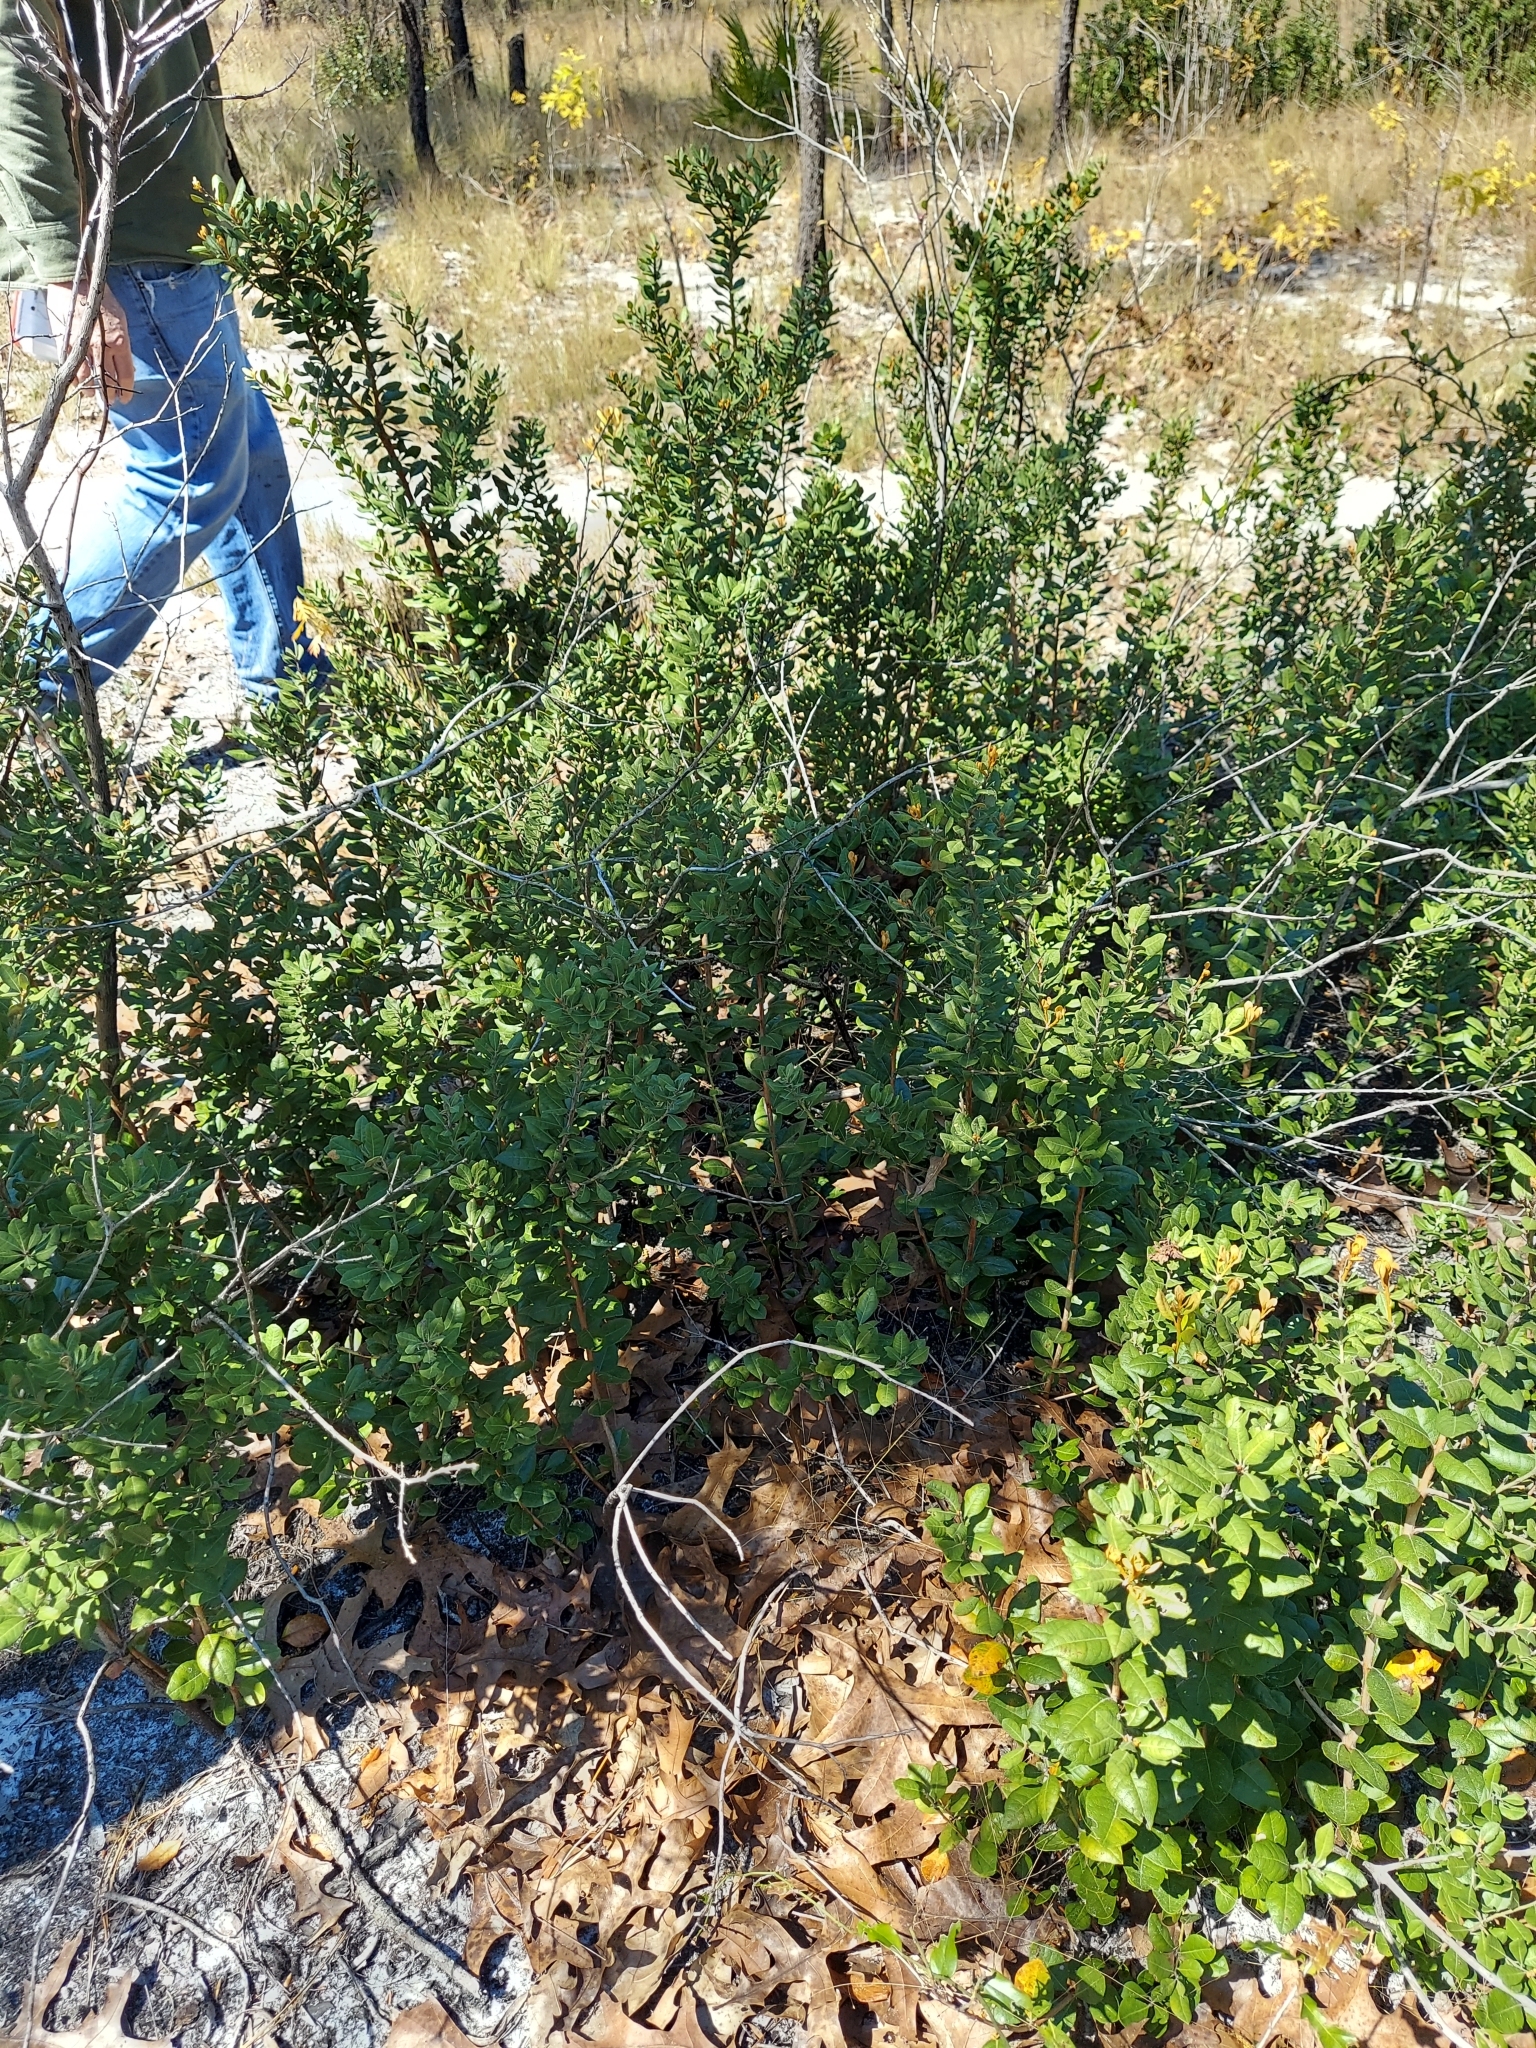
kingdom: Plantae
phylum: Tracheophyta
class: Magnoliopsida
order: Ericales
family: Ericaceae
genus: Lyonia
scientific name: Lyonia ferruginea
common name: Rusty lyonia
